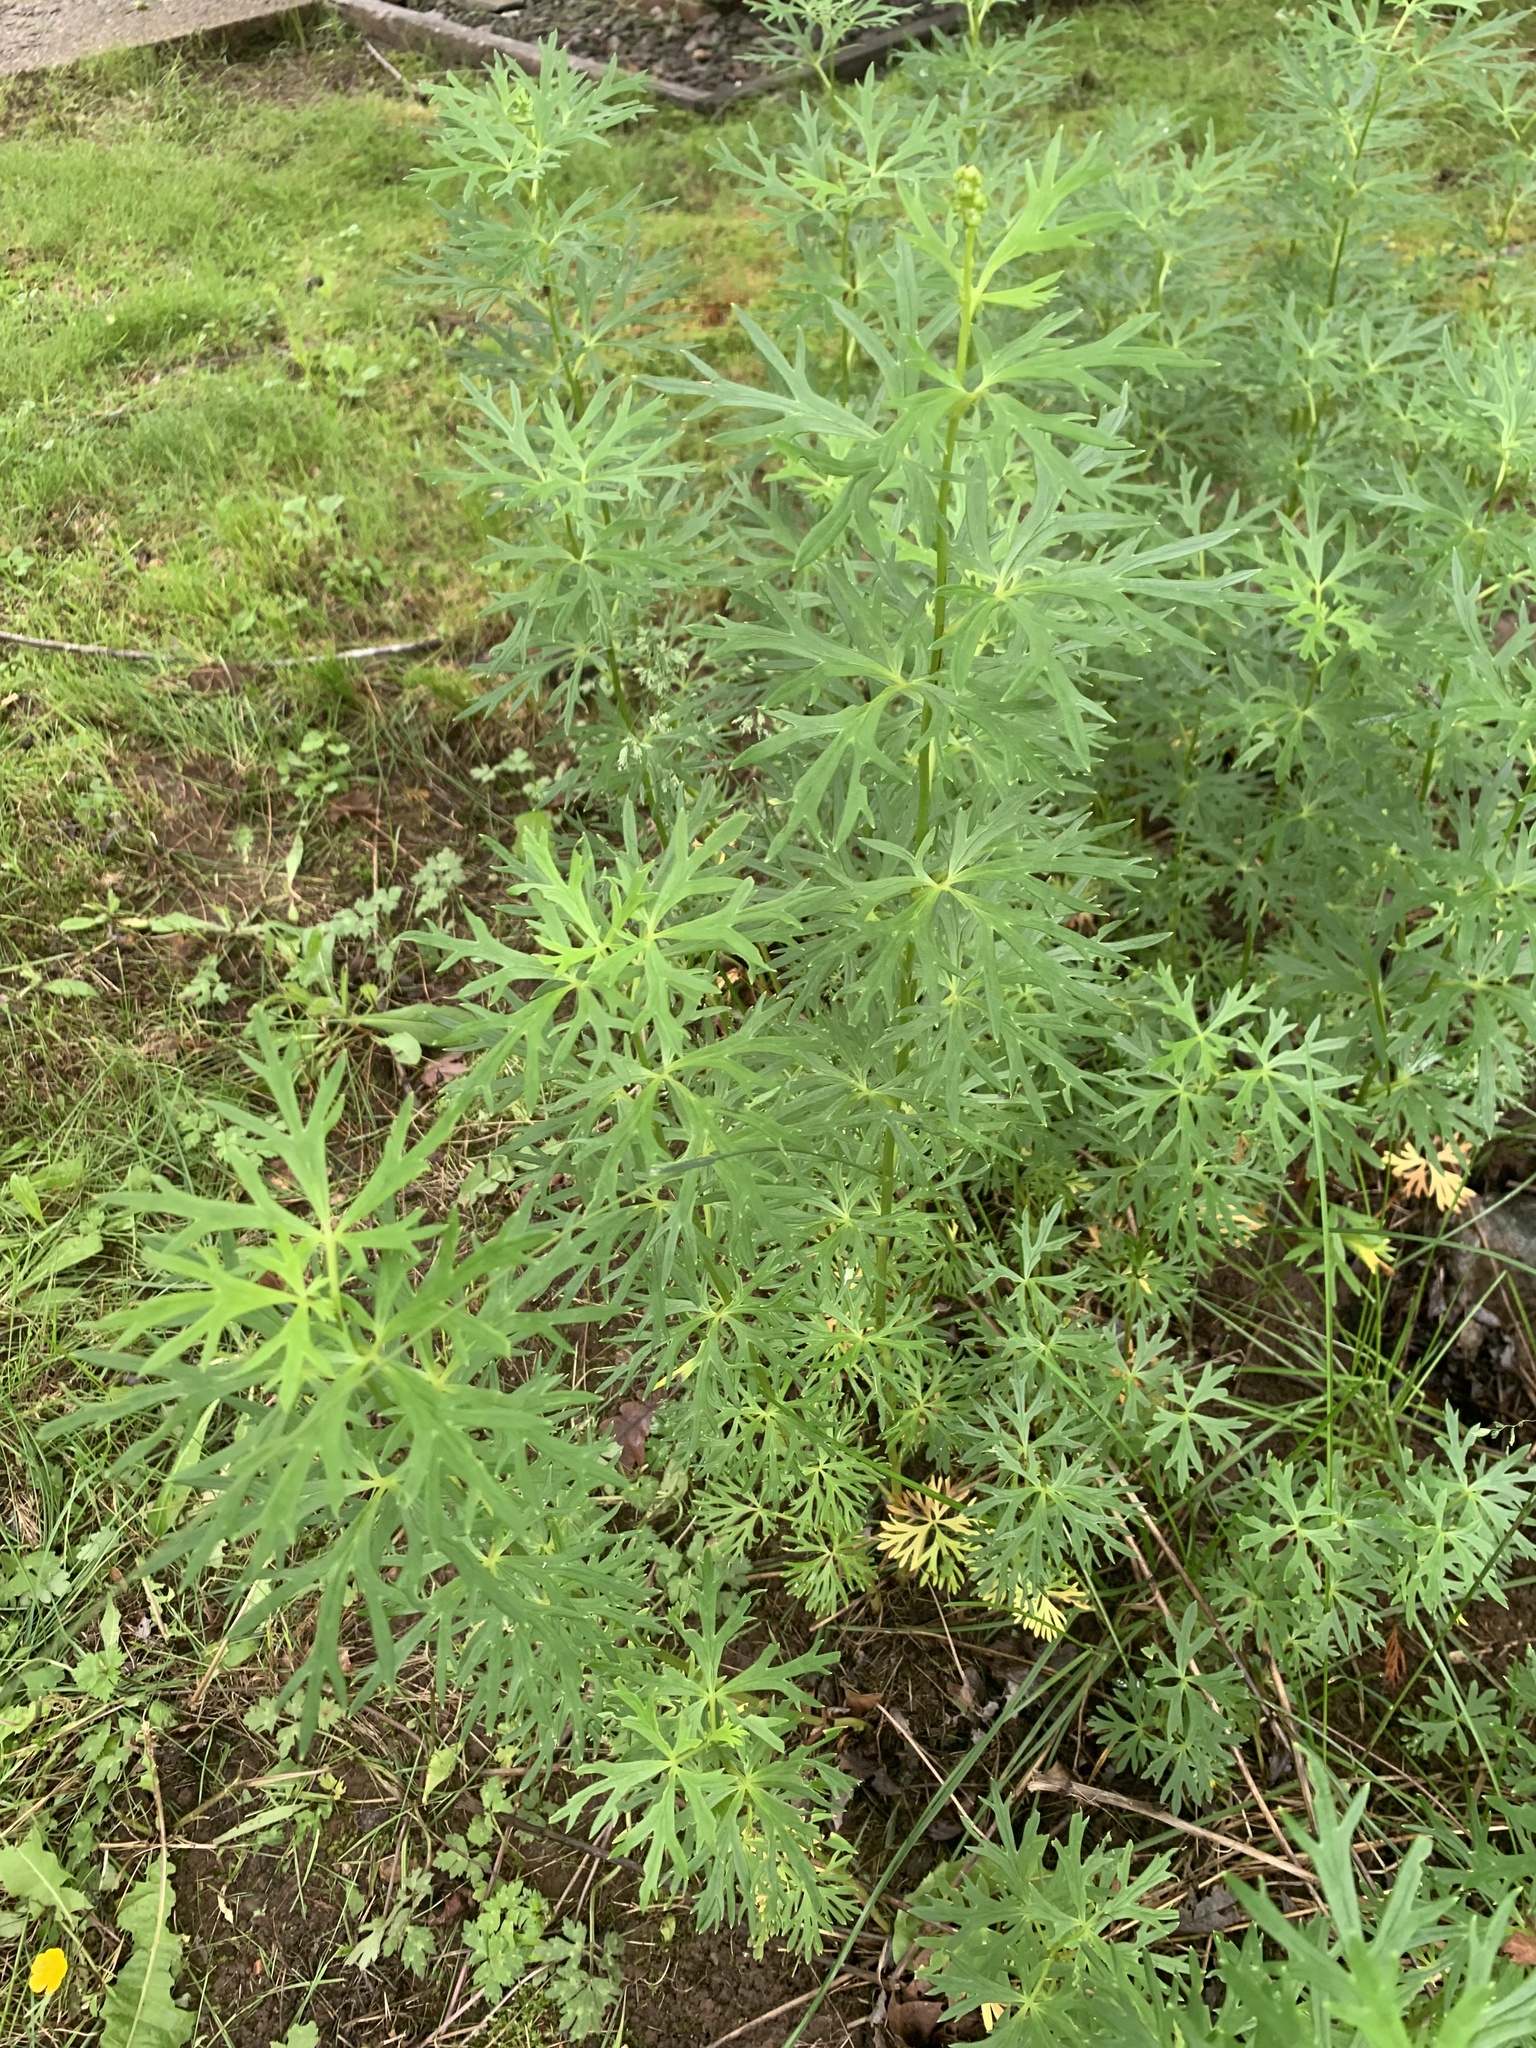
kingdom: Plantae
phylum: Tracheophyta
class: Magnoliopsida
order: Ranunculales
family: Ranunculaceae
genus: Aconitum
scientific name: Aconitum napellus
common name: Garden monkshood
